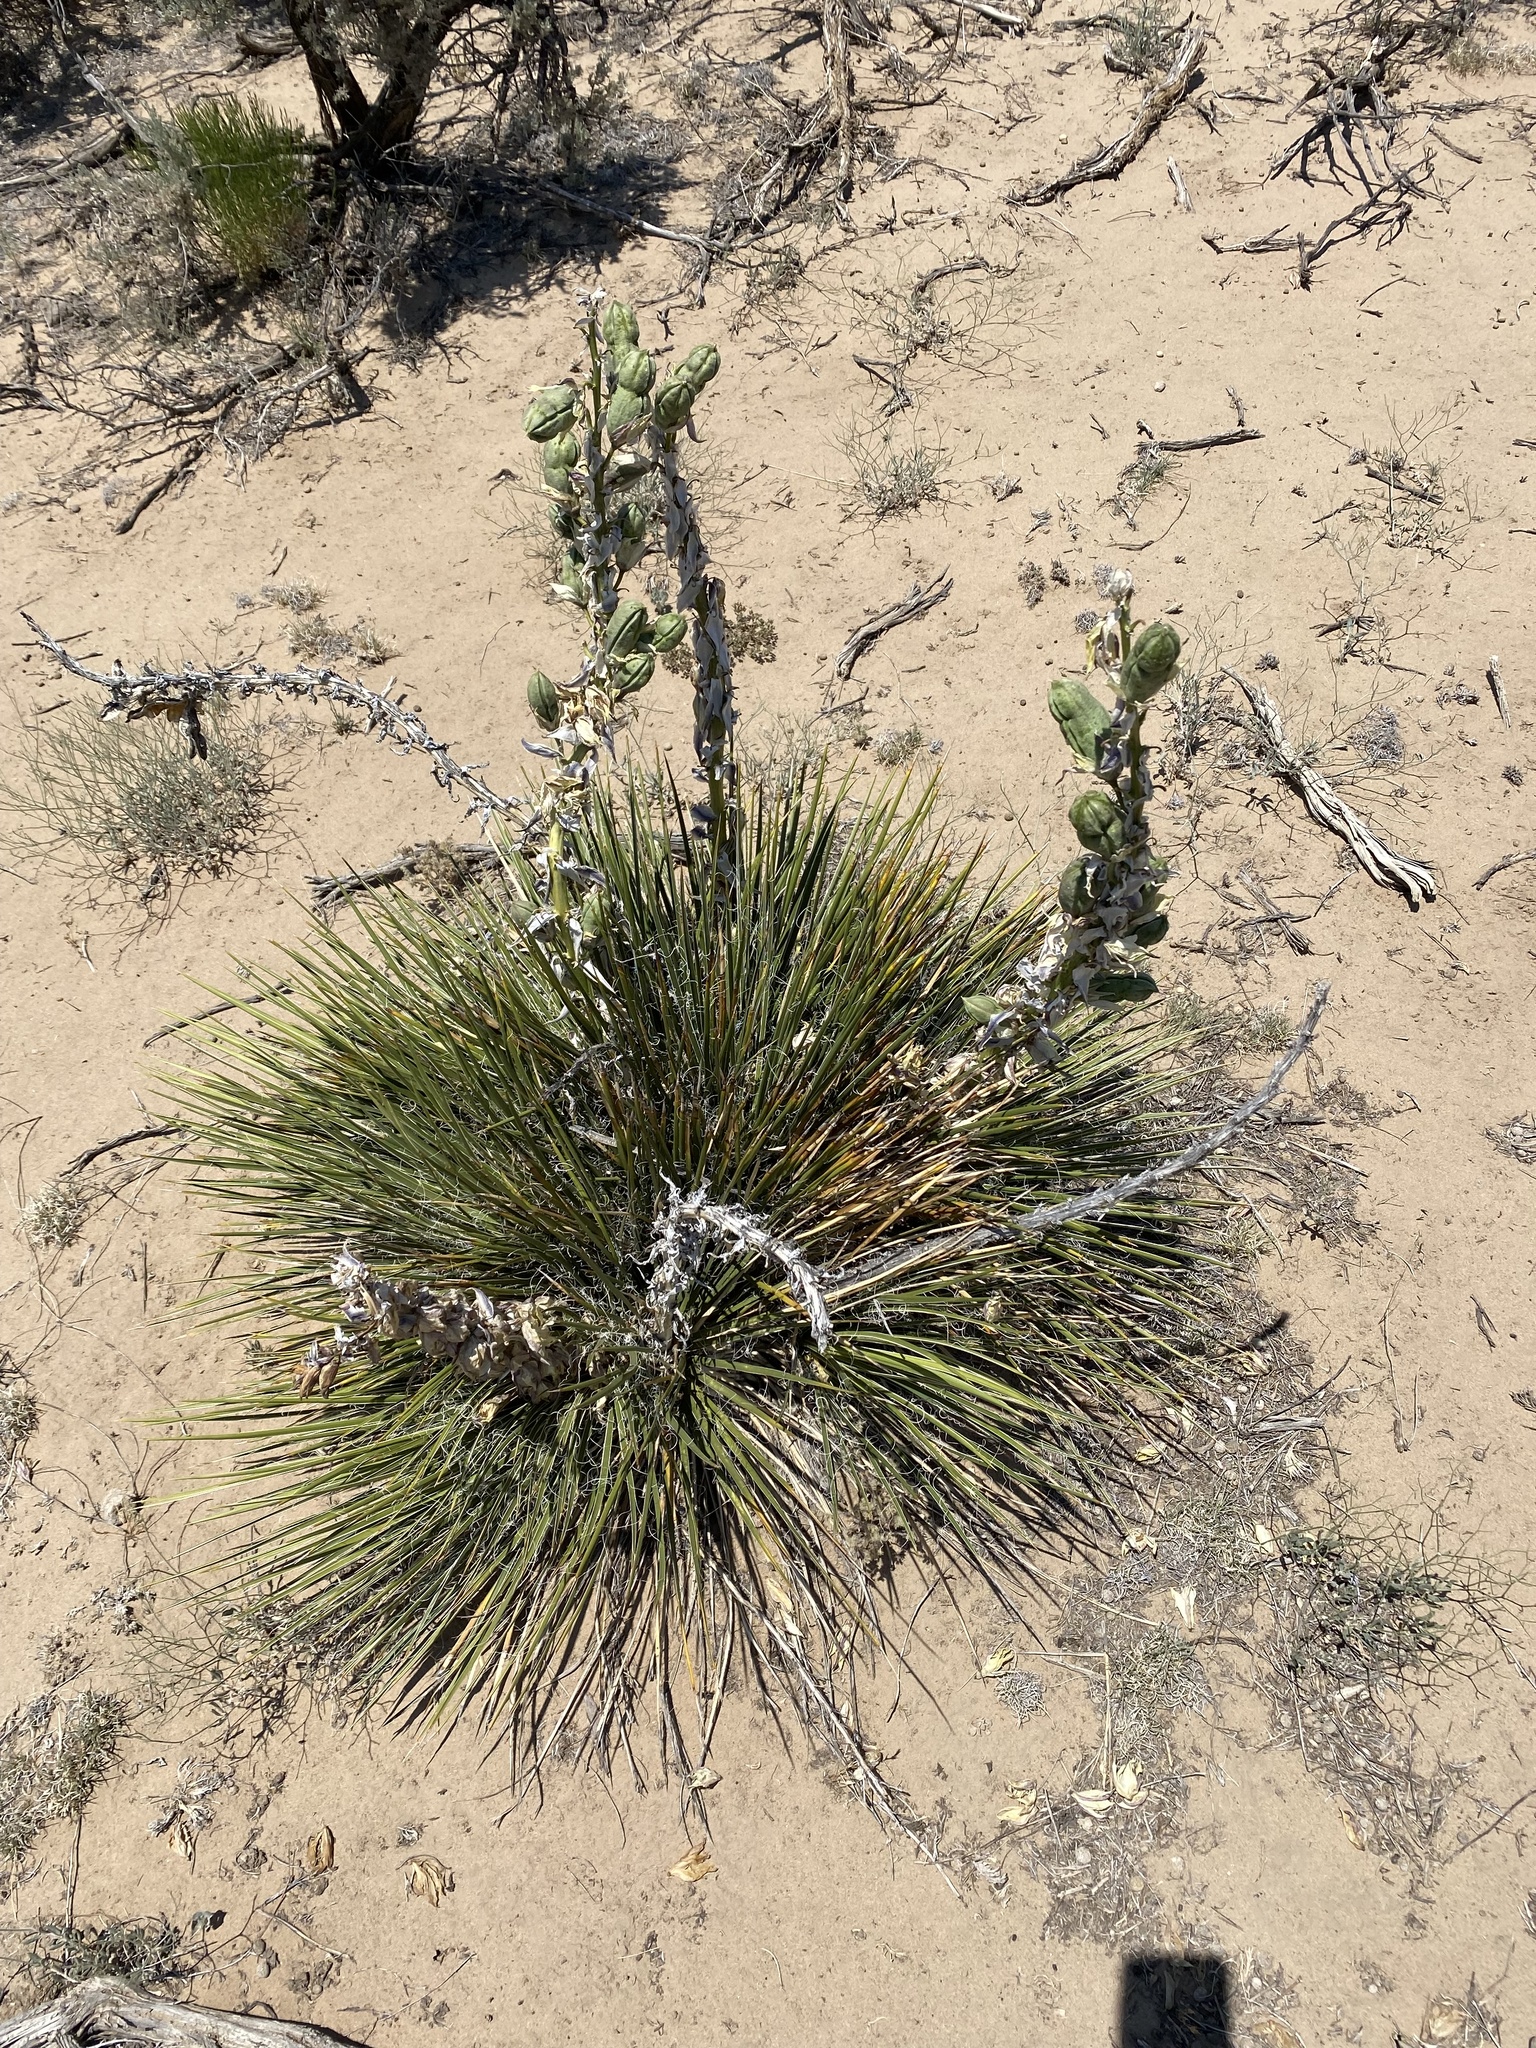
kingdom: Plantae
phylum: Tracheophyta
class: Liliopsida
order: Asparagales
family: Asparagaceae
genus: Yucca
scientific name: Yucca angustissima
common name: Narrowleaf yucca
